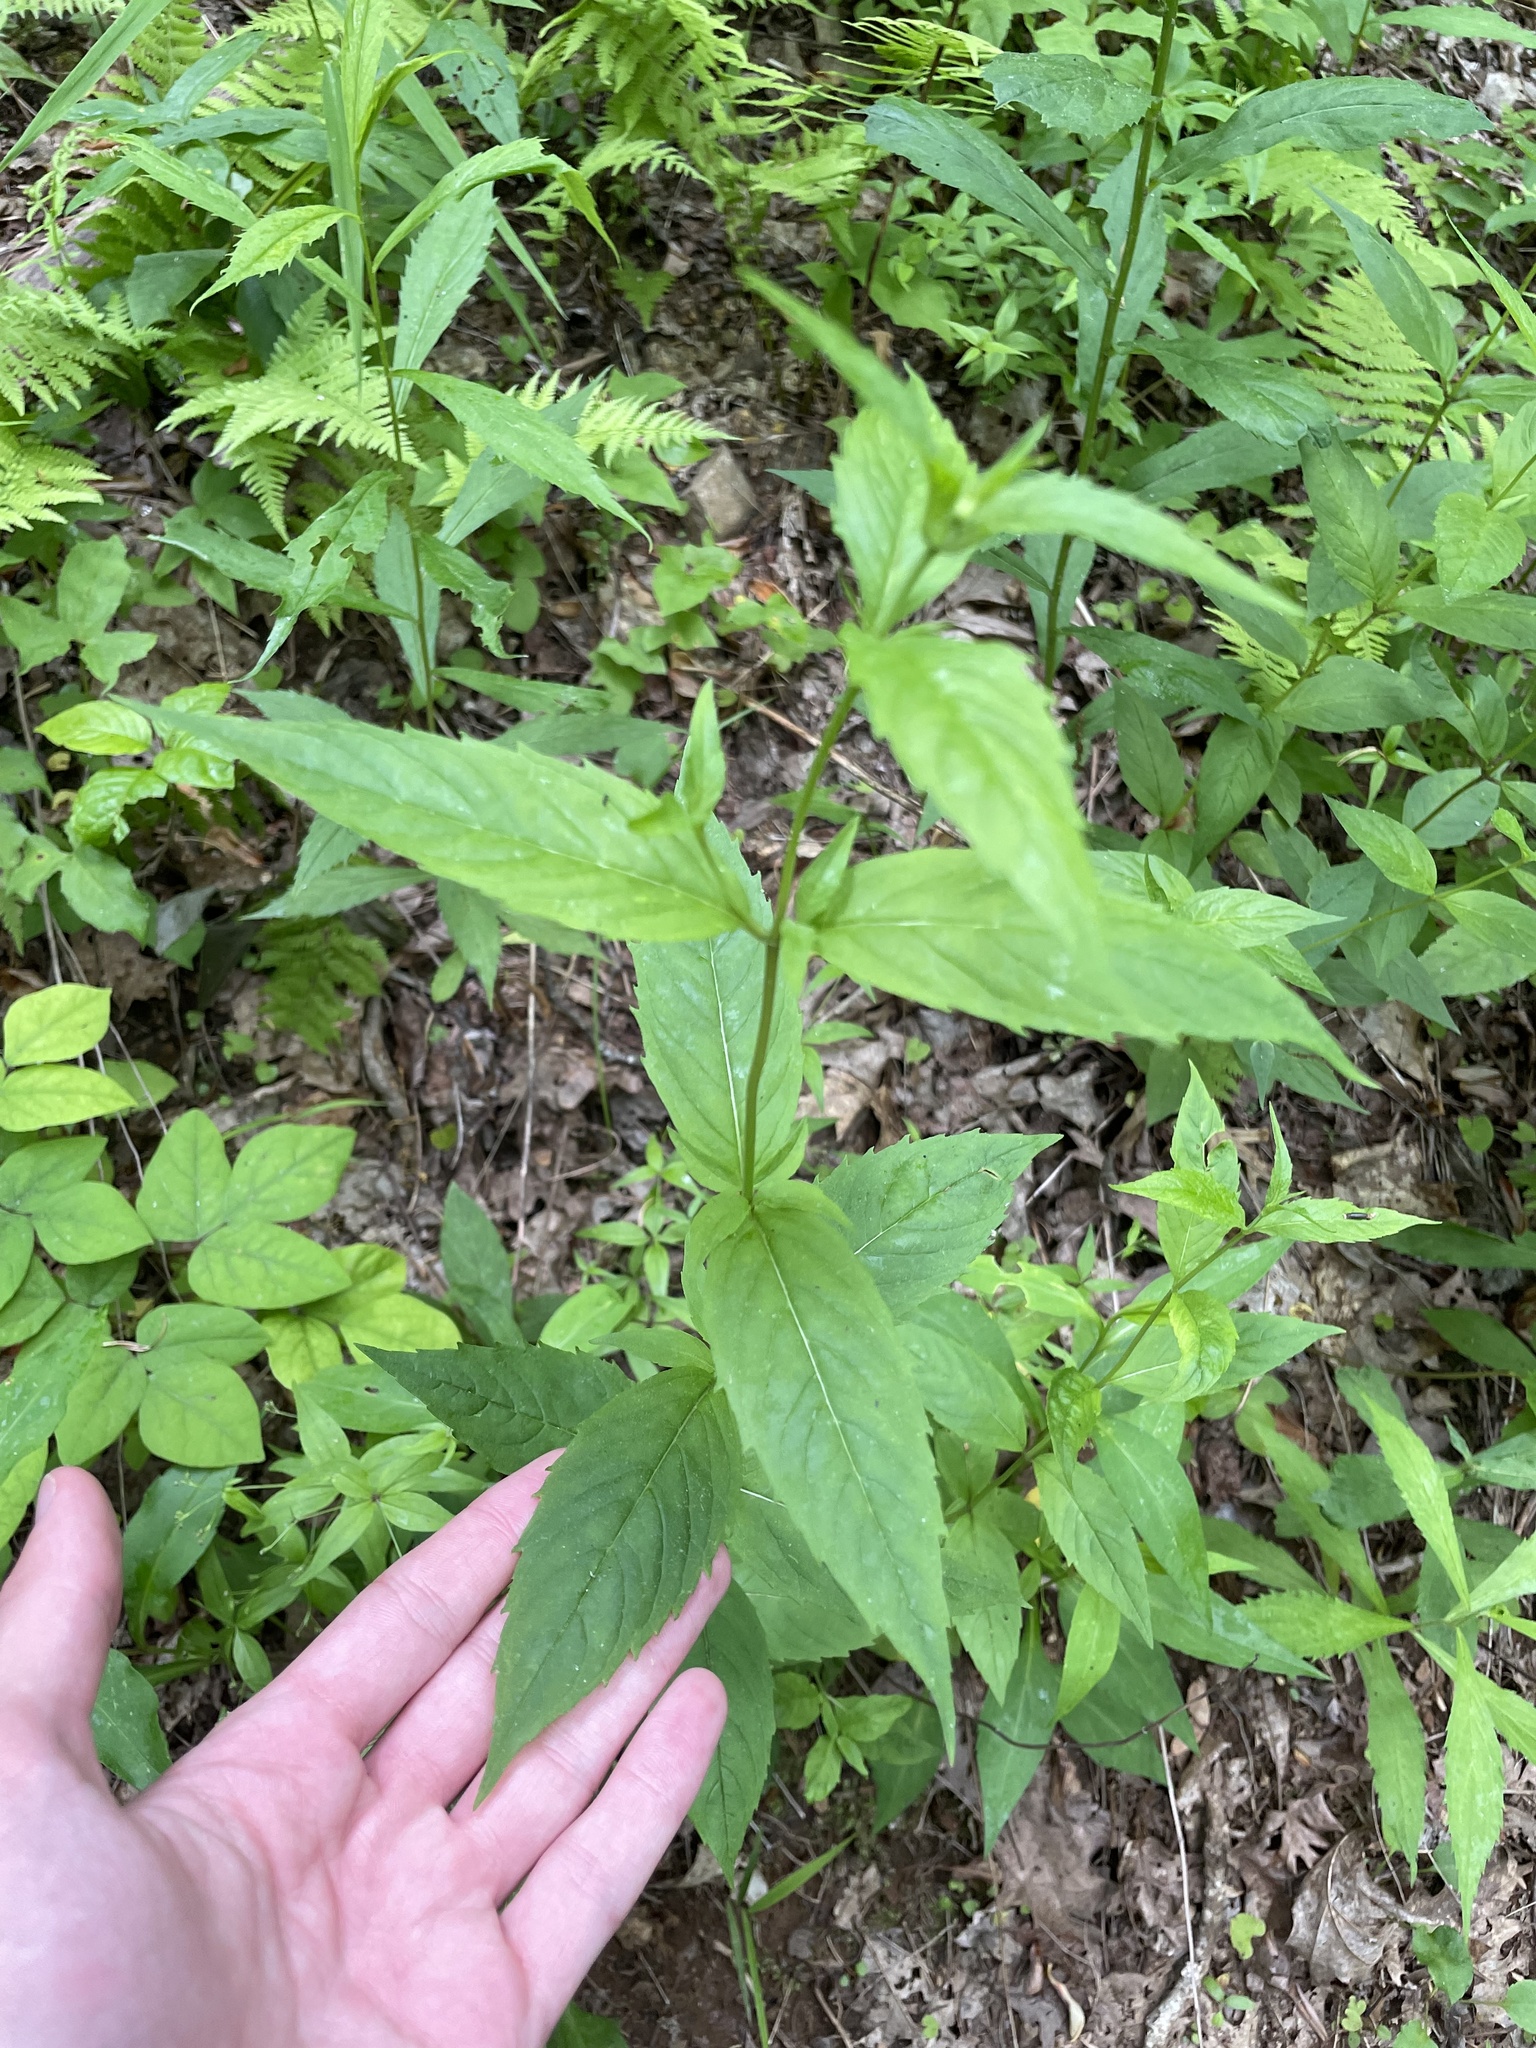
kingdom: Plantae
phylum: Tracheophyta
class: Magnoliopsida
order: Lamiales
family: Lamiaceae
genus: Monarda
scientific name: Monarda clinopodia
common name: Basil beebalm
